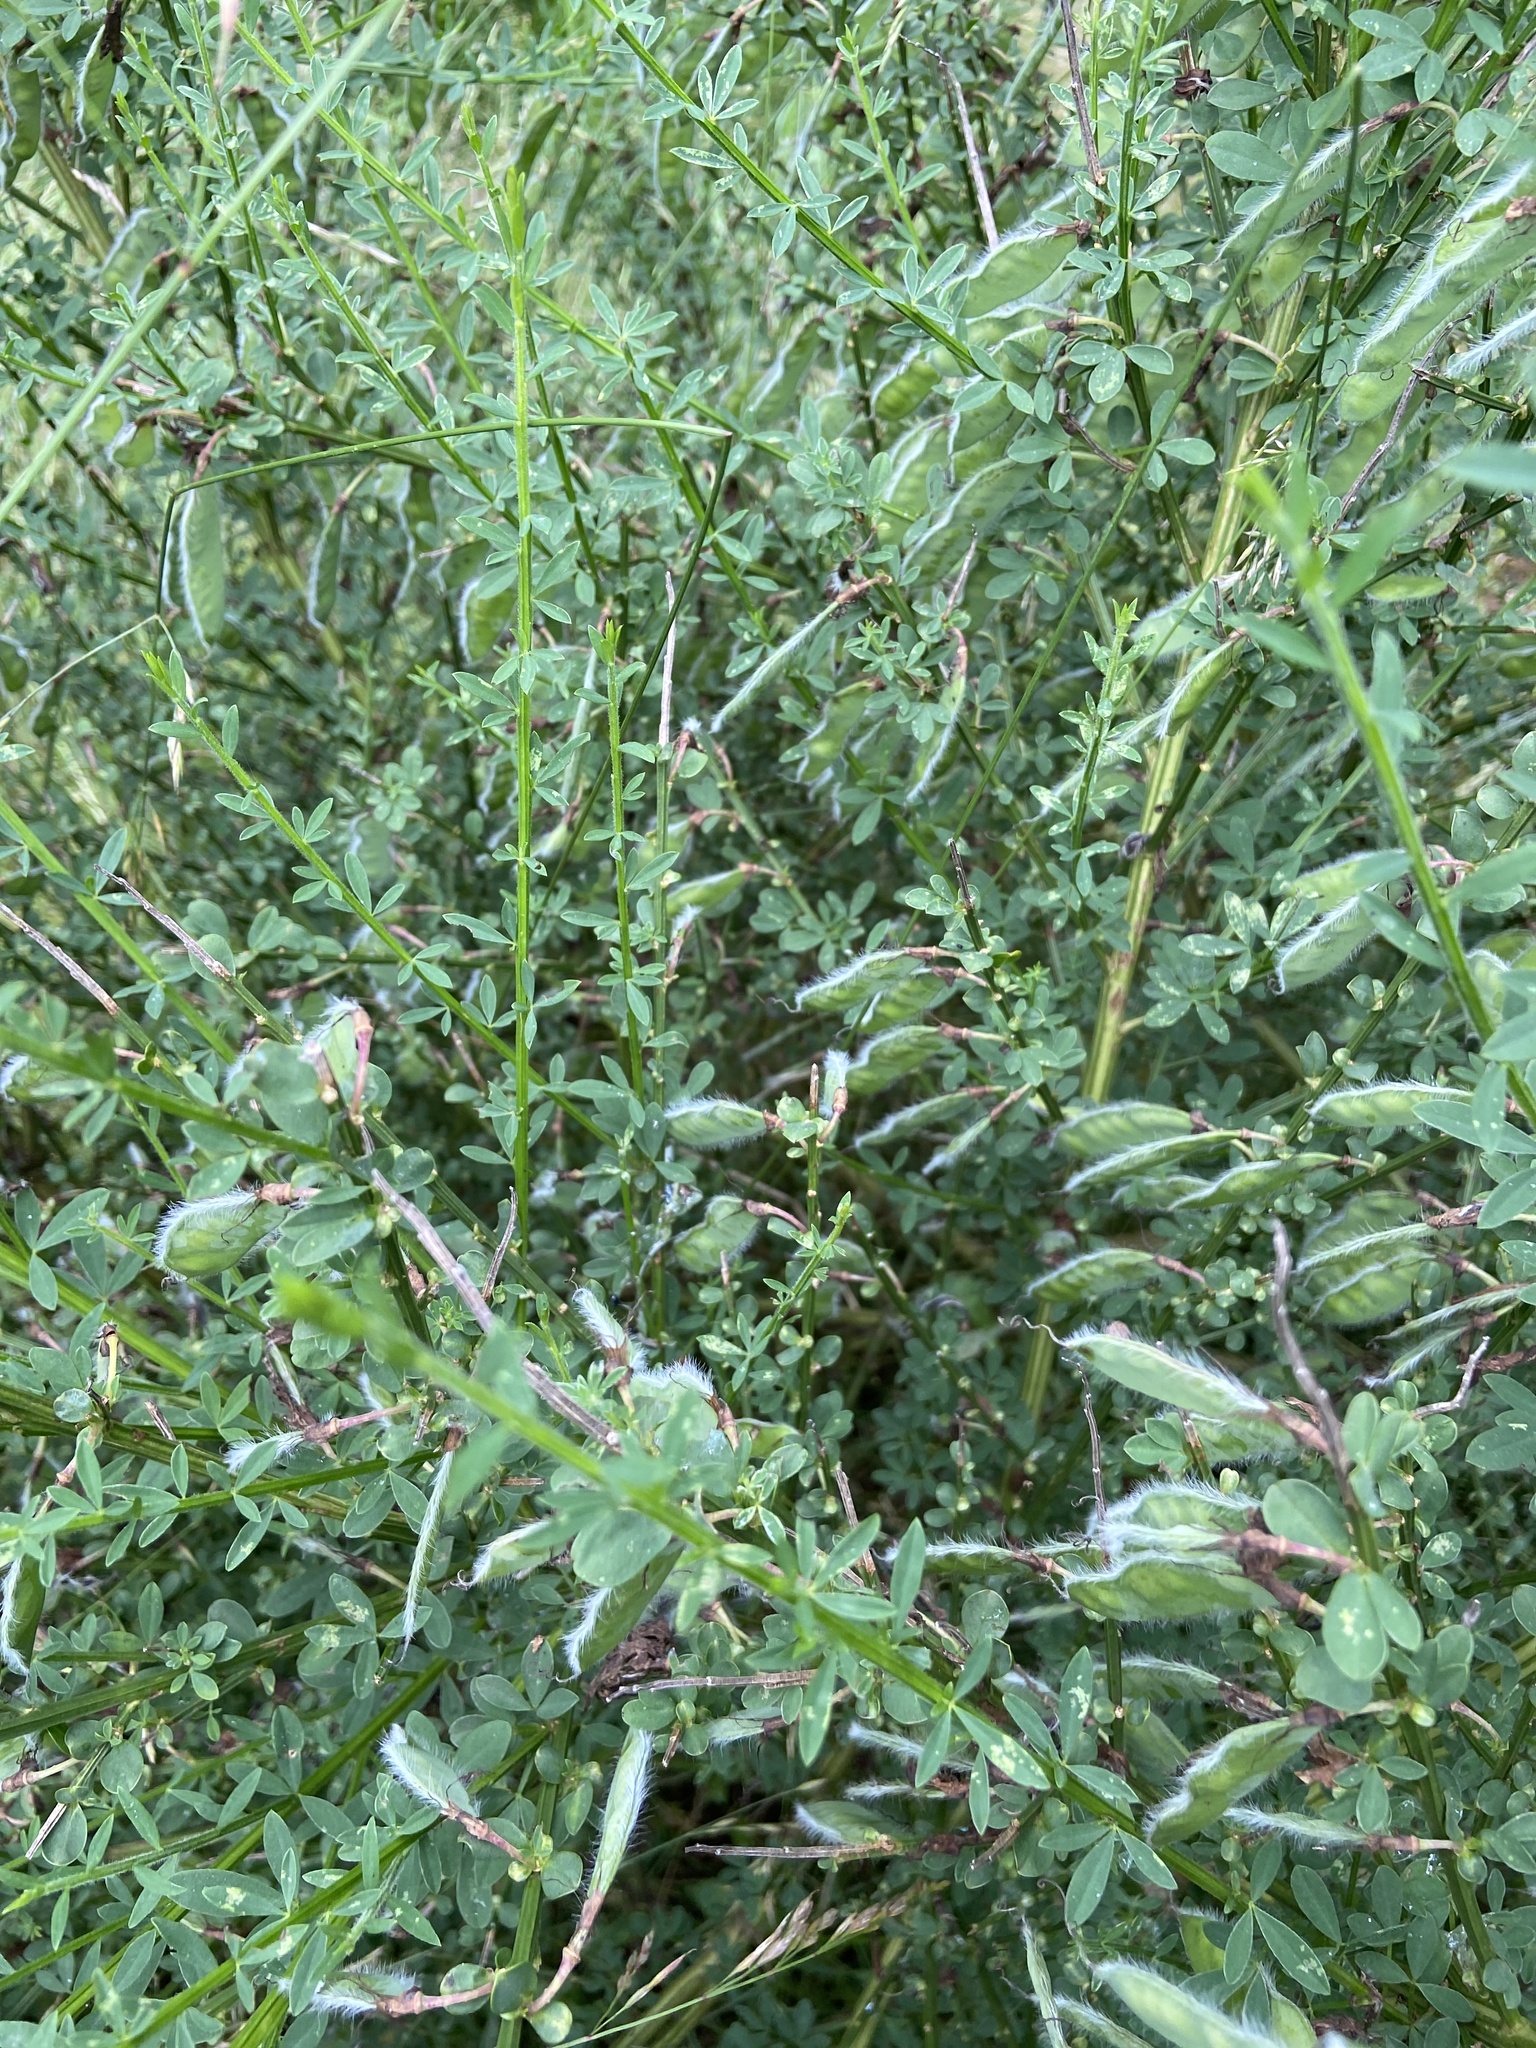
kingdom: Plantae
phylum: Tracheophyta
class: Magnoliopsida
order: Fabales
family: Fabaceae
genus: Cytisus
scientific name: Cytisus scoparius
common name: Scotch broom
